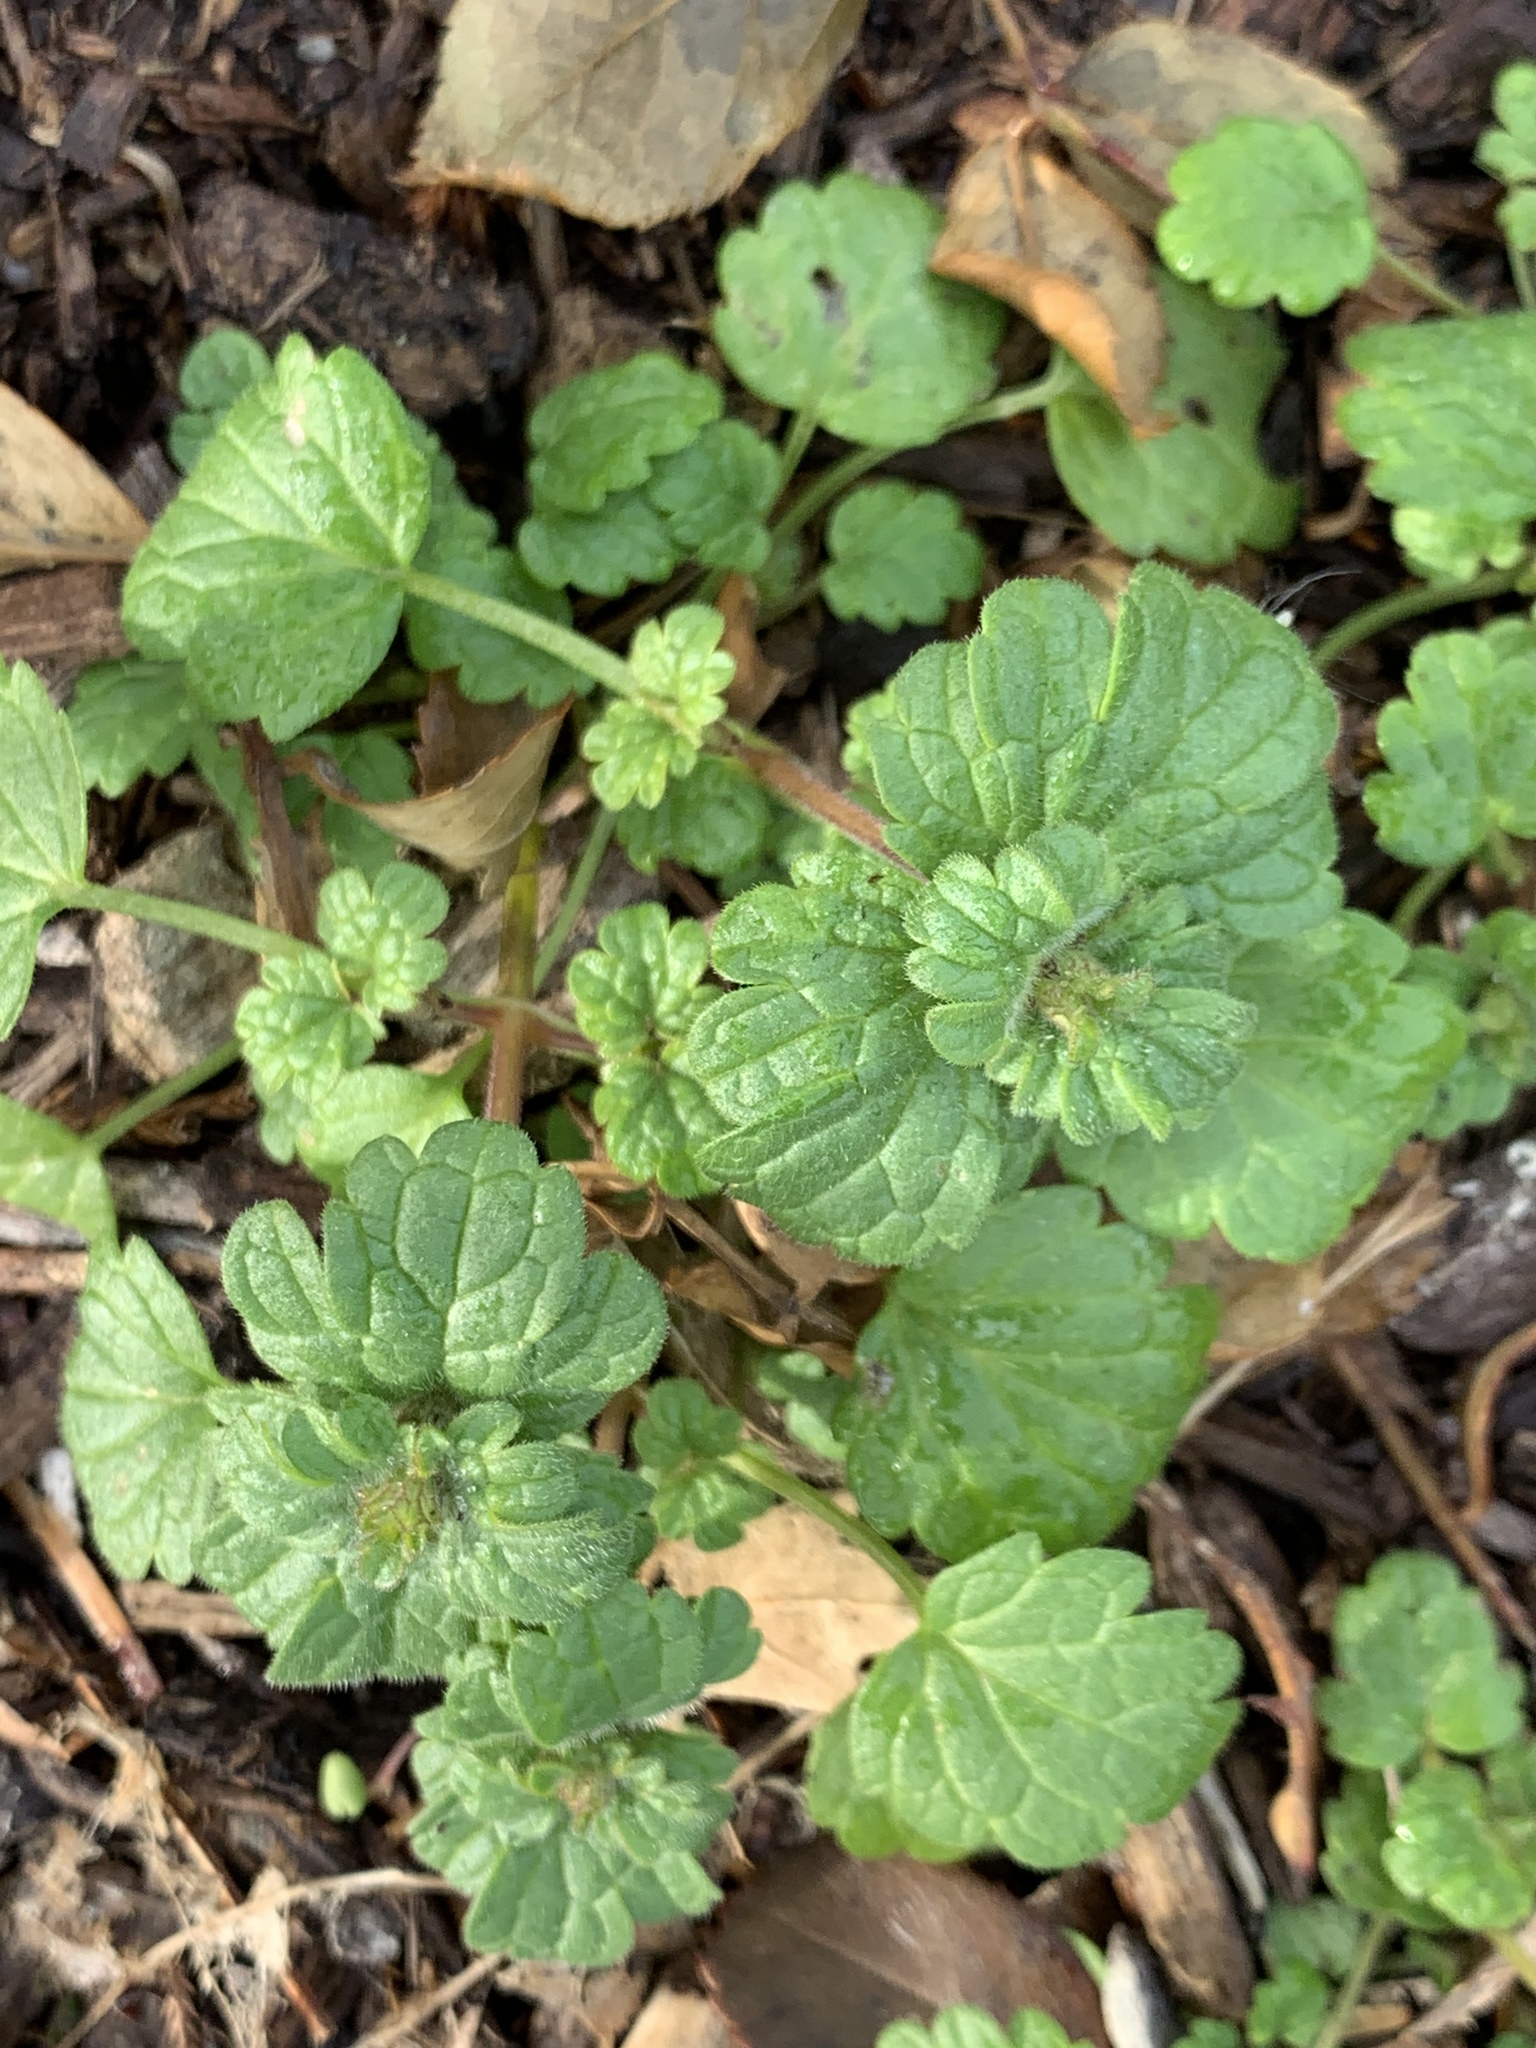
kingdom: Plantae
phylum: Tracheophyta
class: Magnoliopsida
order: Lamiales
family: Lamiaceae
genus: Lamium
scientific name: Lamium amplexicaule
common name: Henbit dead-nettle
